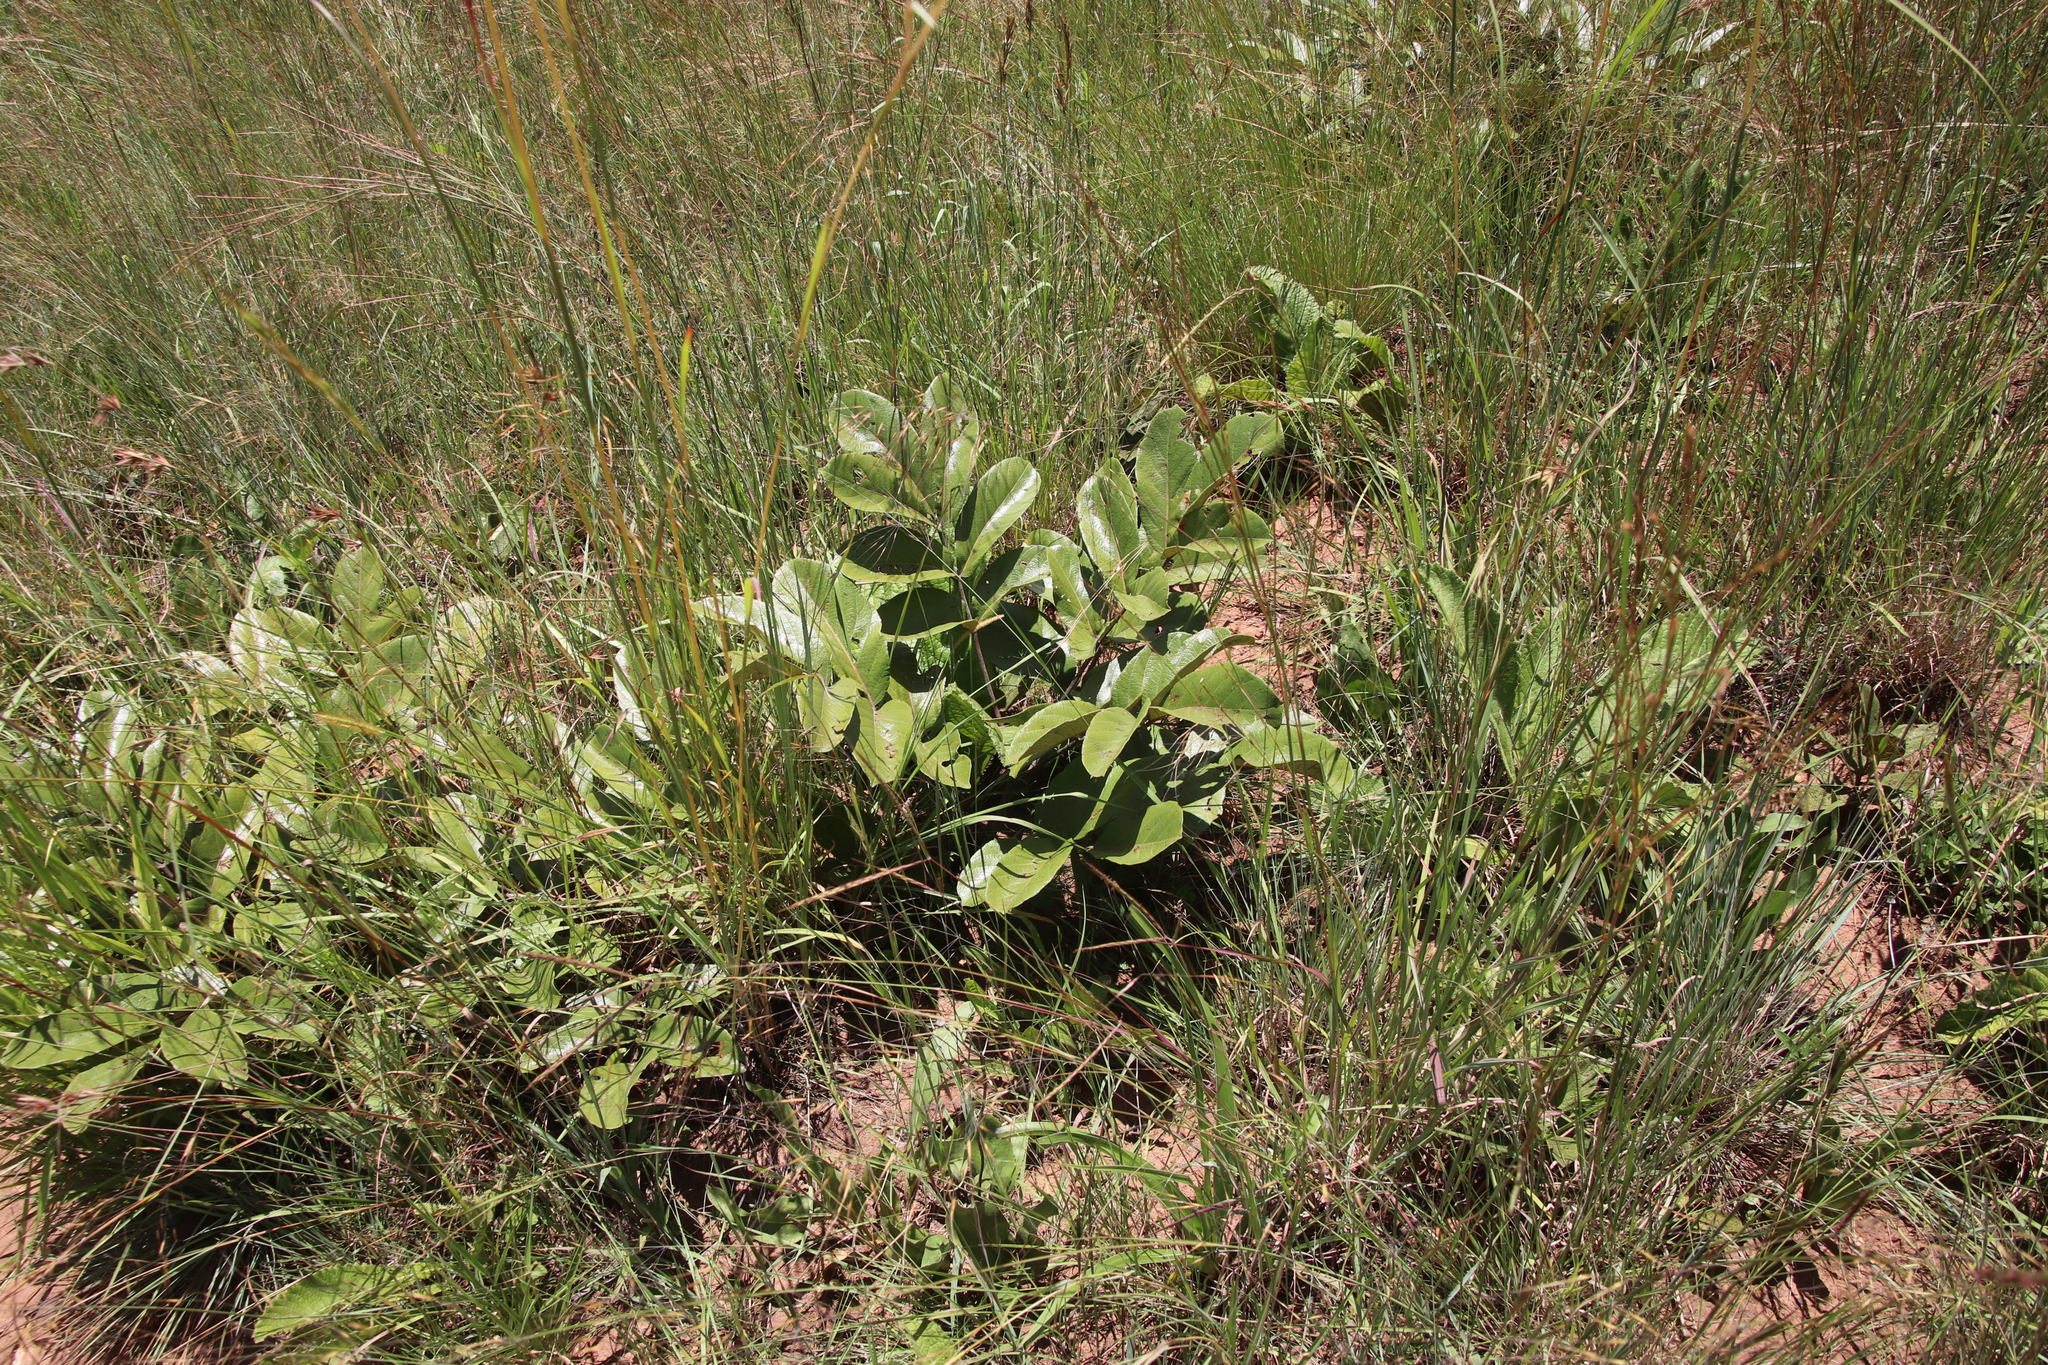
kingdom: Plantae
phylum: Tracheophyta
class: Magnoliopsida
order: Sapindales
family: Anacardiaceae
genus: Lannea
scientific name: Lannea edulis
